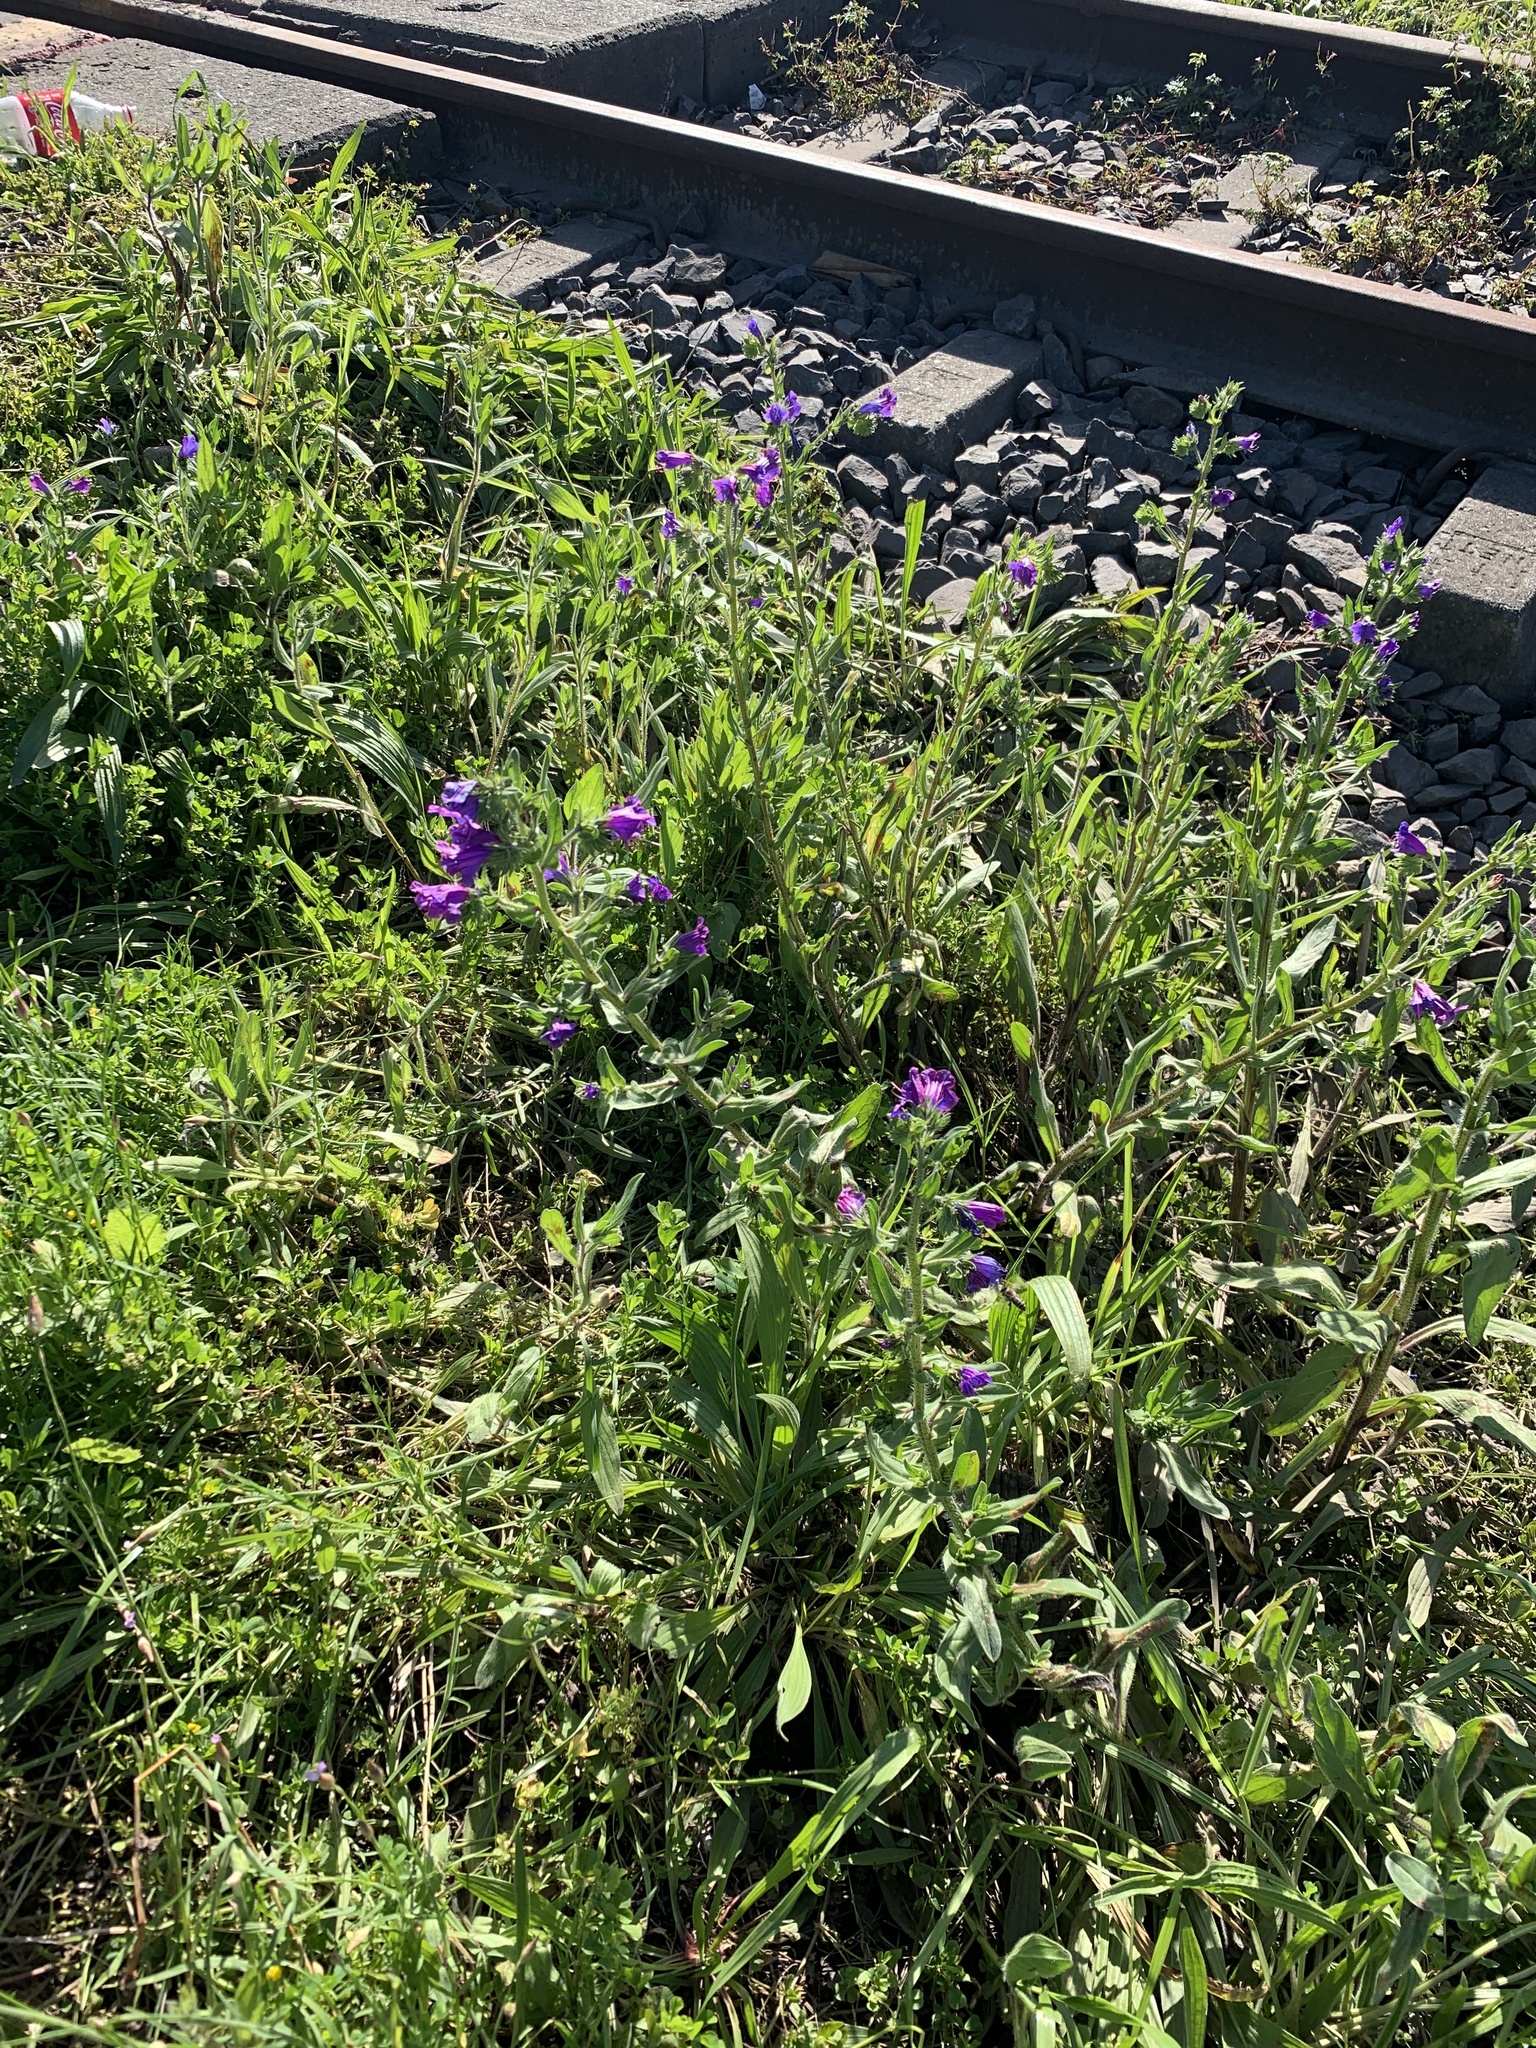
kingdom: Plantae
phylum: Tracheophyta
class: Magnoliopsida
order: Boraginales
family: Boraginaceae
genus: Echium
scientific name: Echium plantagineum
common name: Purple viper's-bugloss
